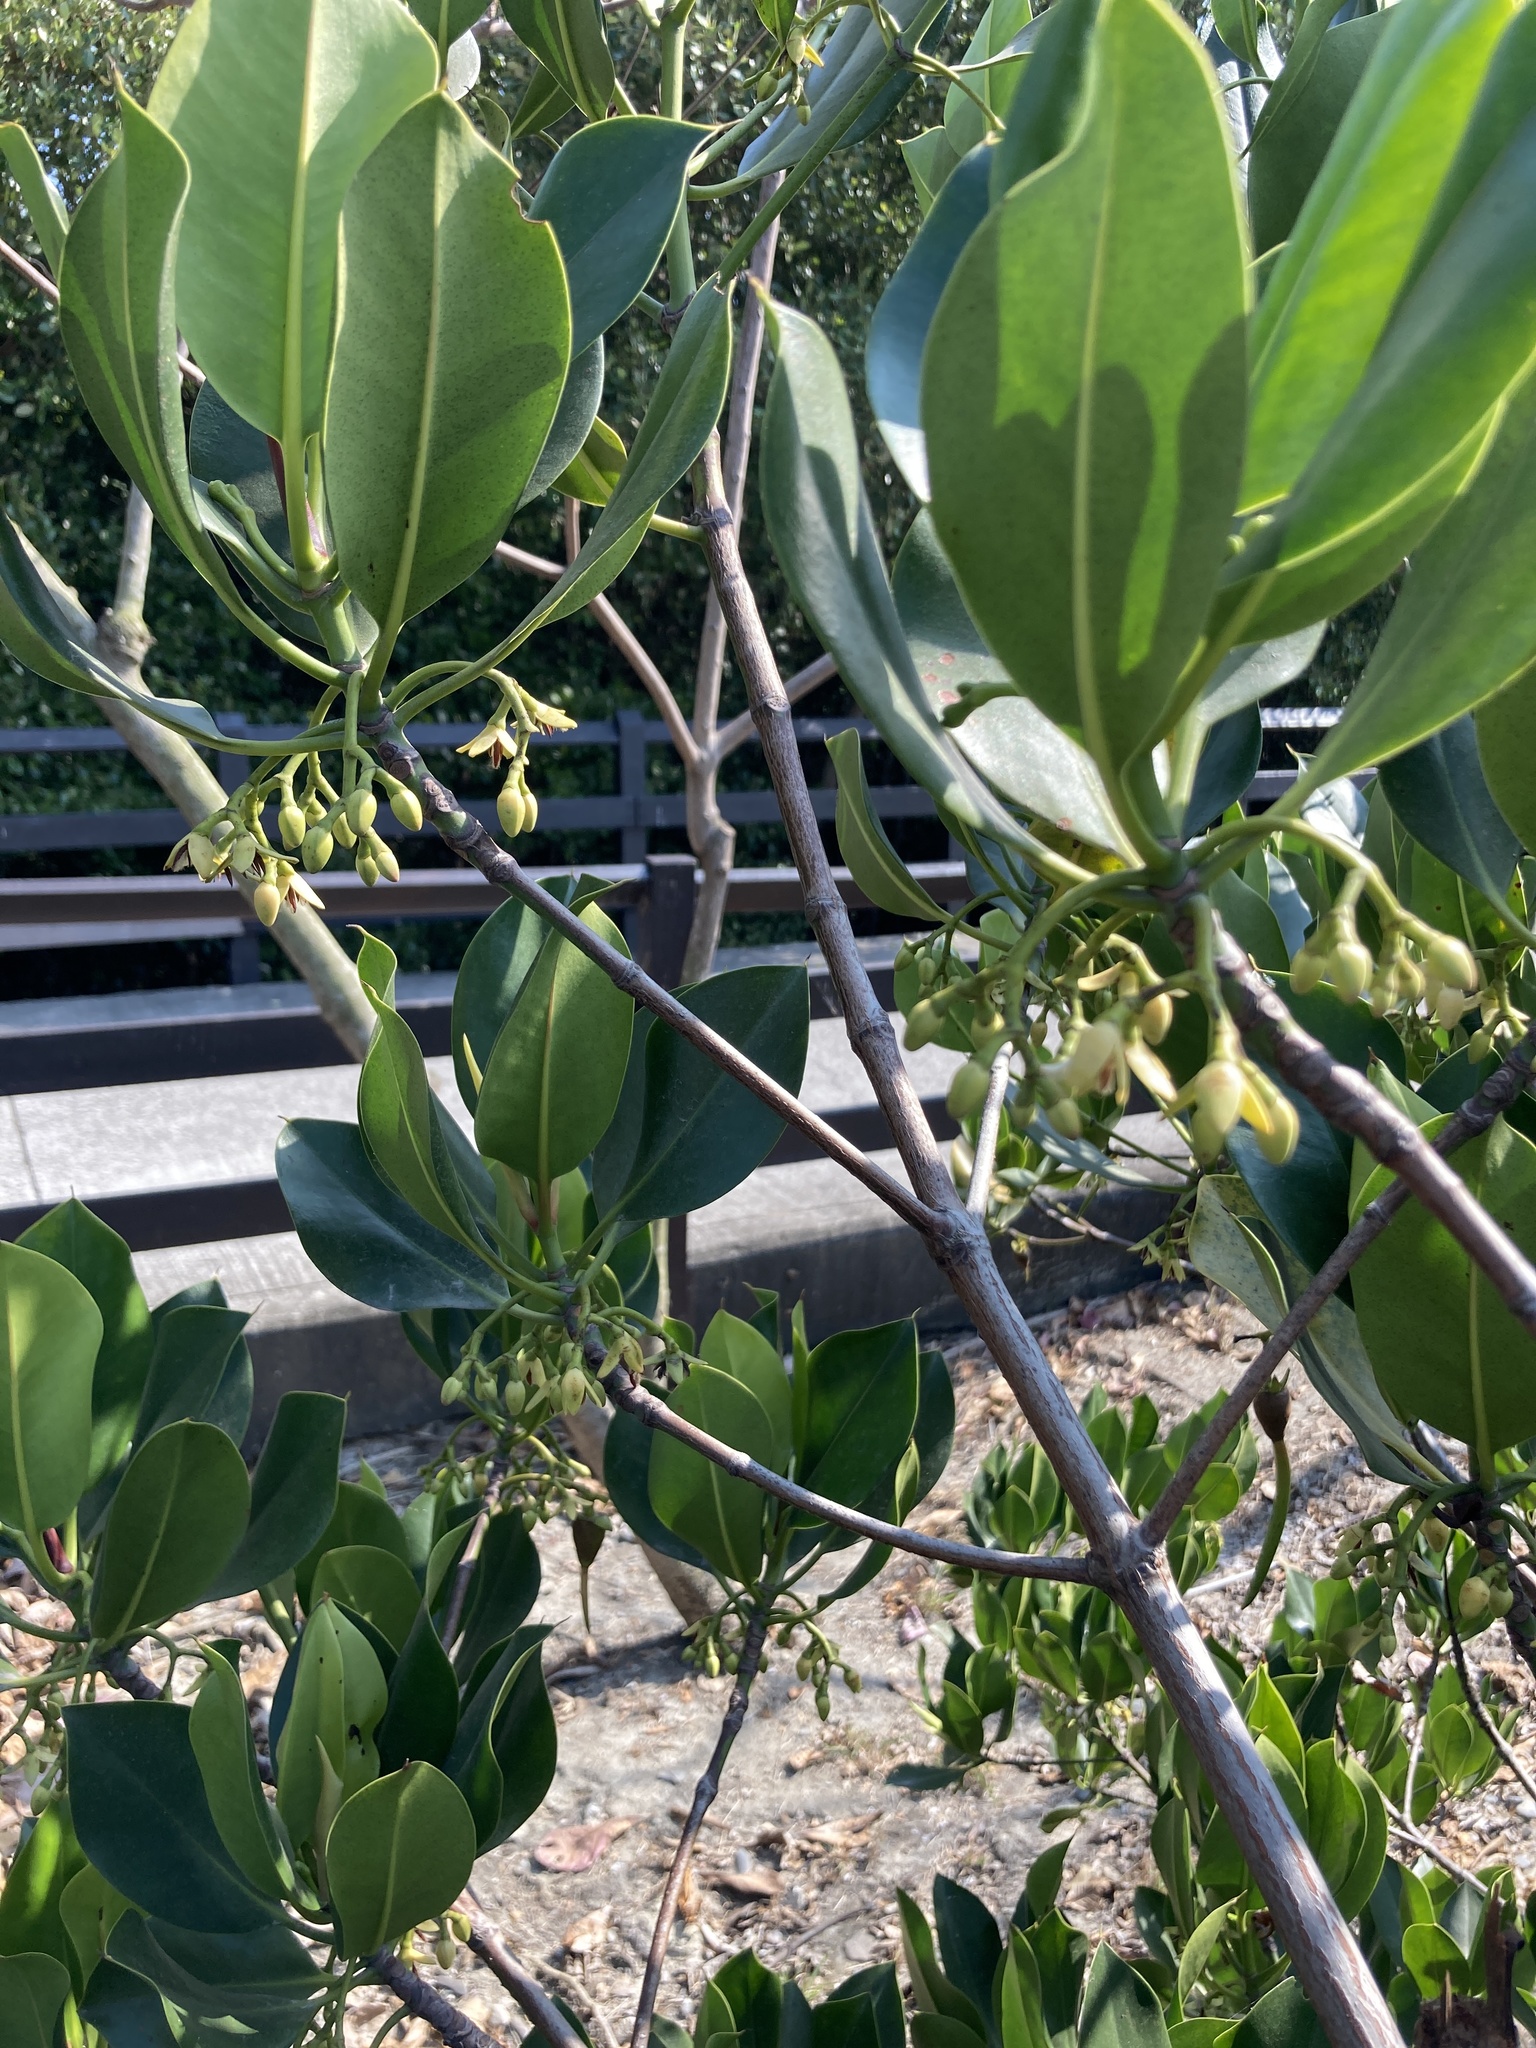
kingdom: Plantae
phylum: Tracheophyta
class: Magnoliopsida
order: Malpighiales
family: Rhizophoraceae
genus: Rhizophora
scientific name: Rhizophora stylosa
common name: Red mangrove
